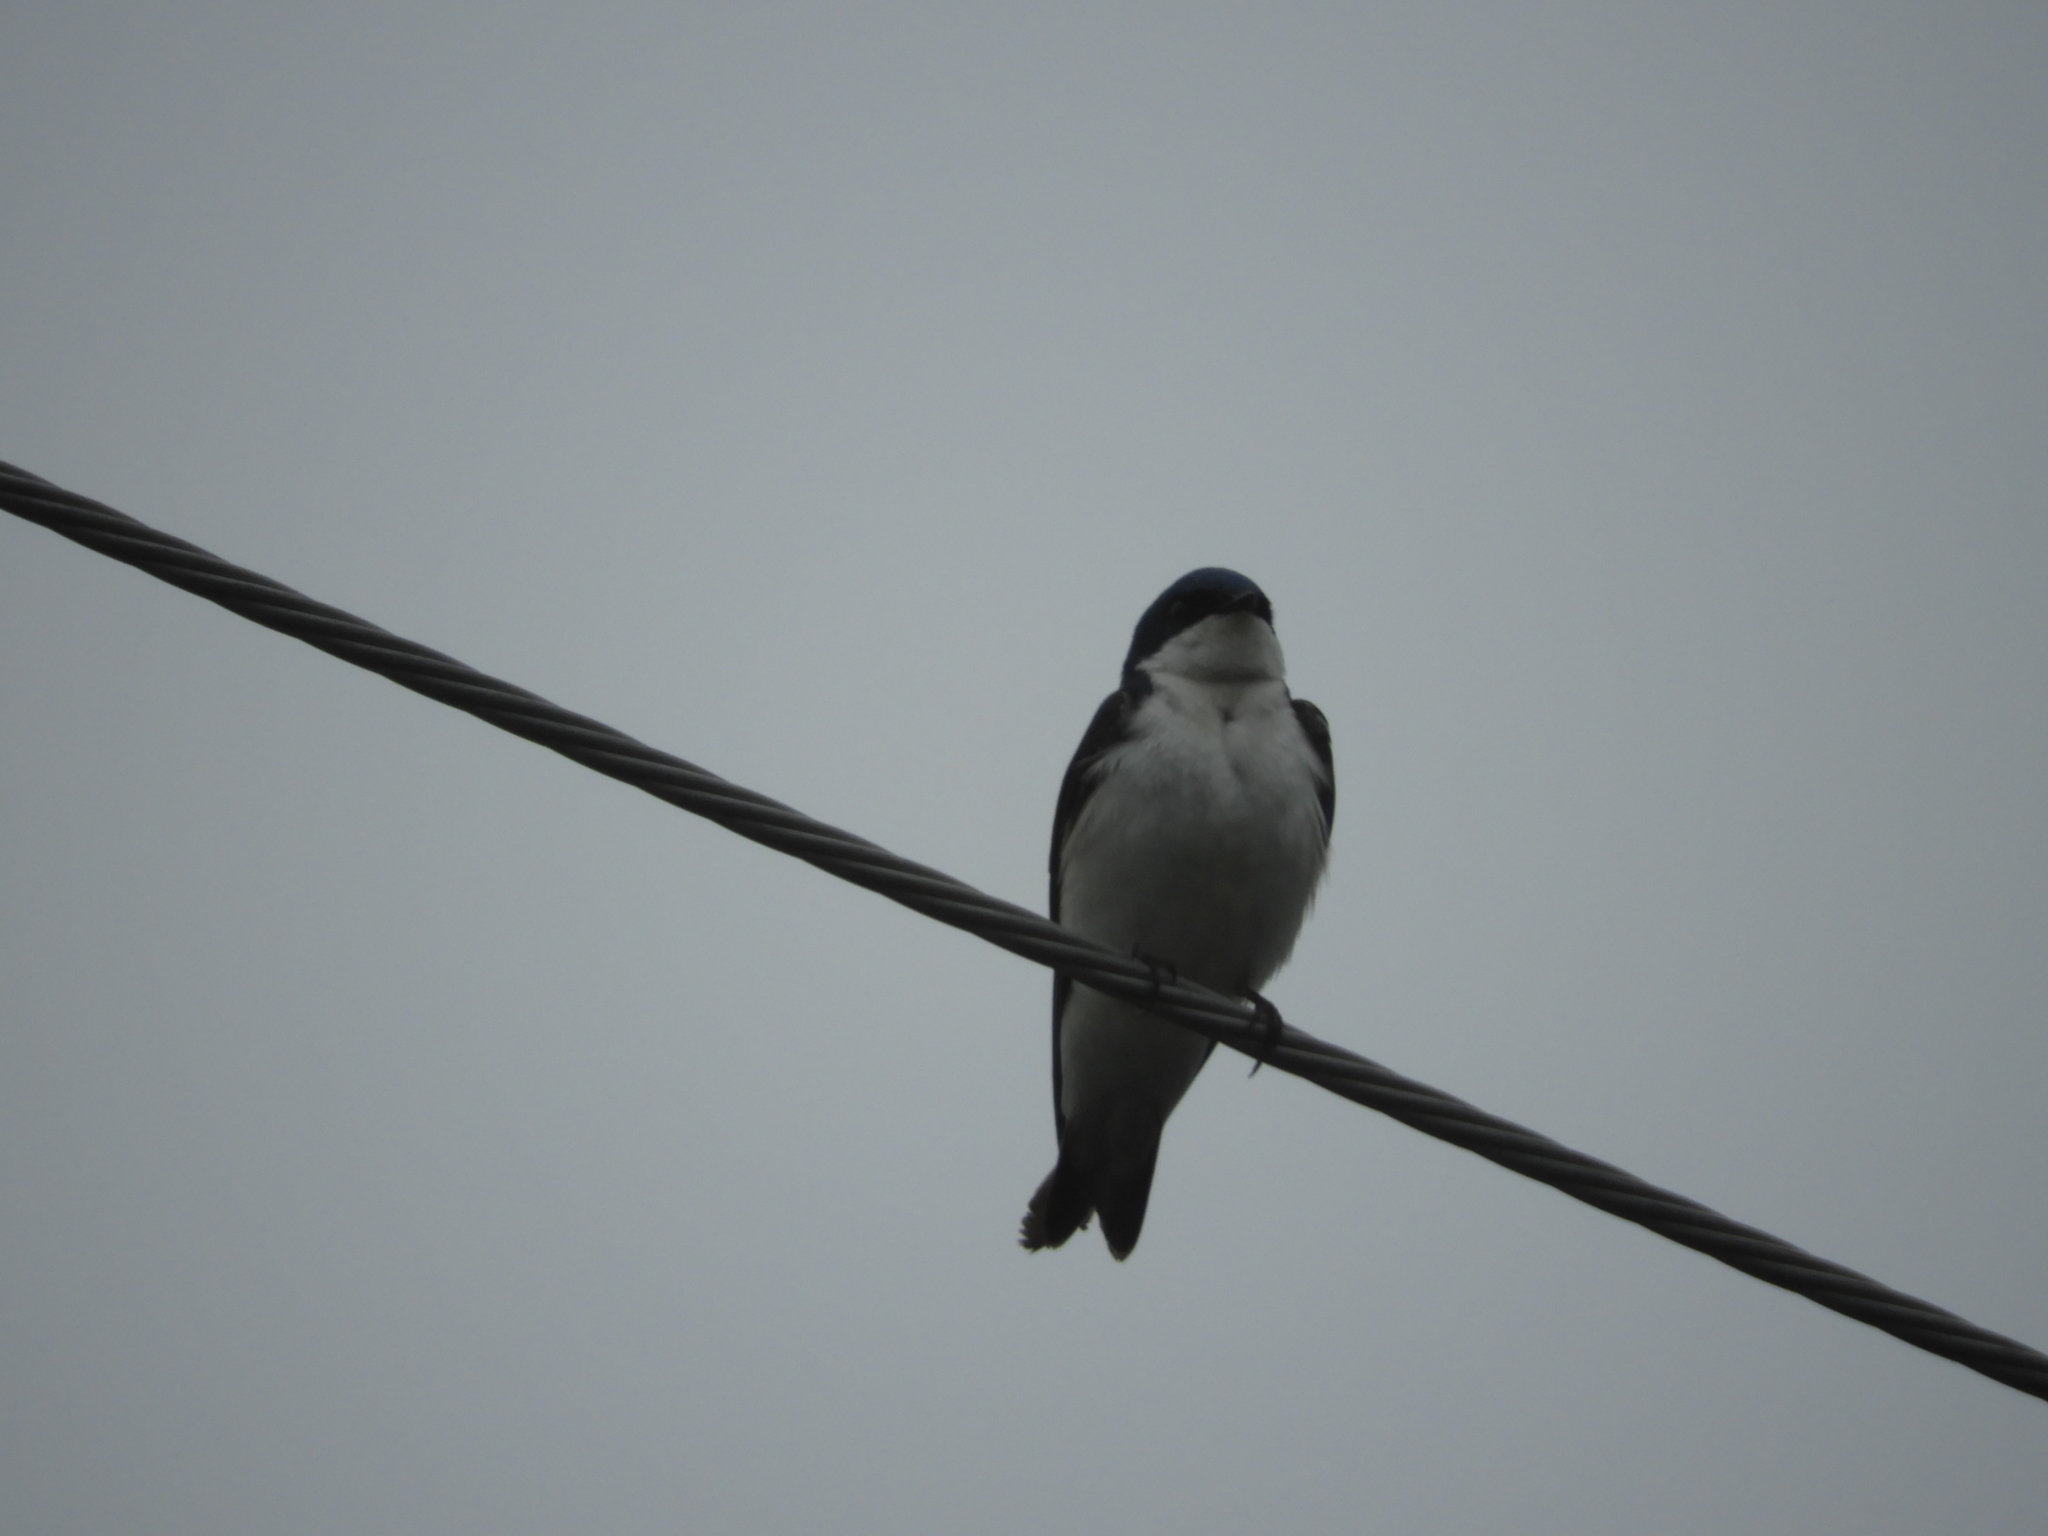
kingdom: Animalia
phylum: Chordata
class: Aves
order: Passeriformes
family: Hirundinidae
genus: Tachycineta
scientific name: Tachycineta bicolor
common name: Tree swallow
